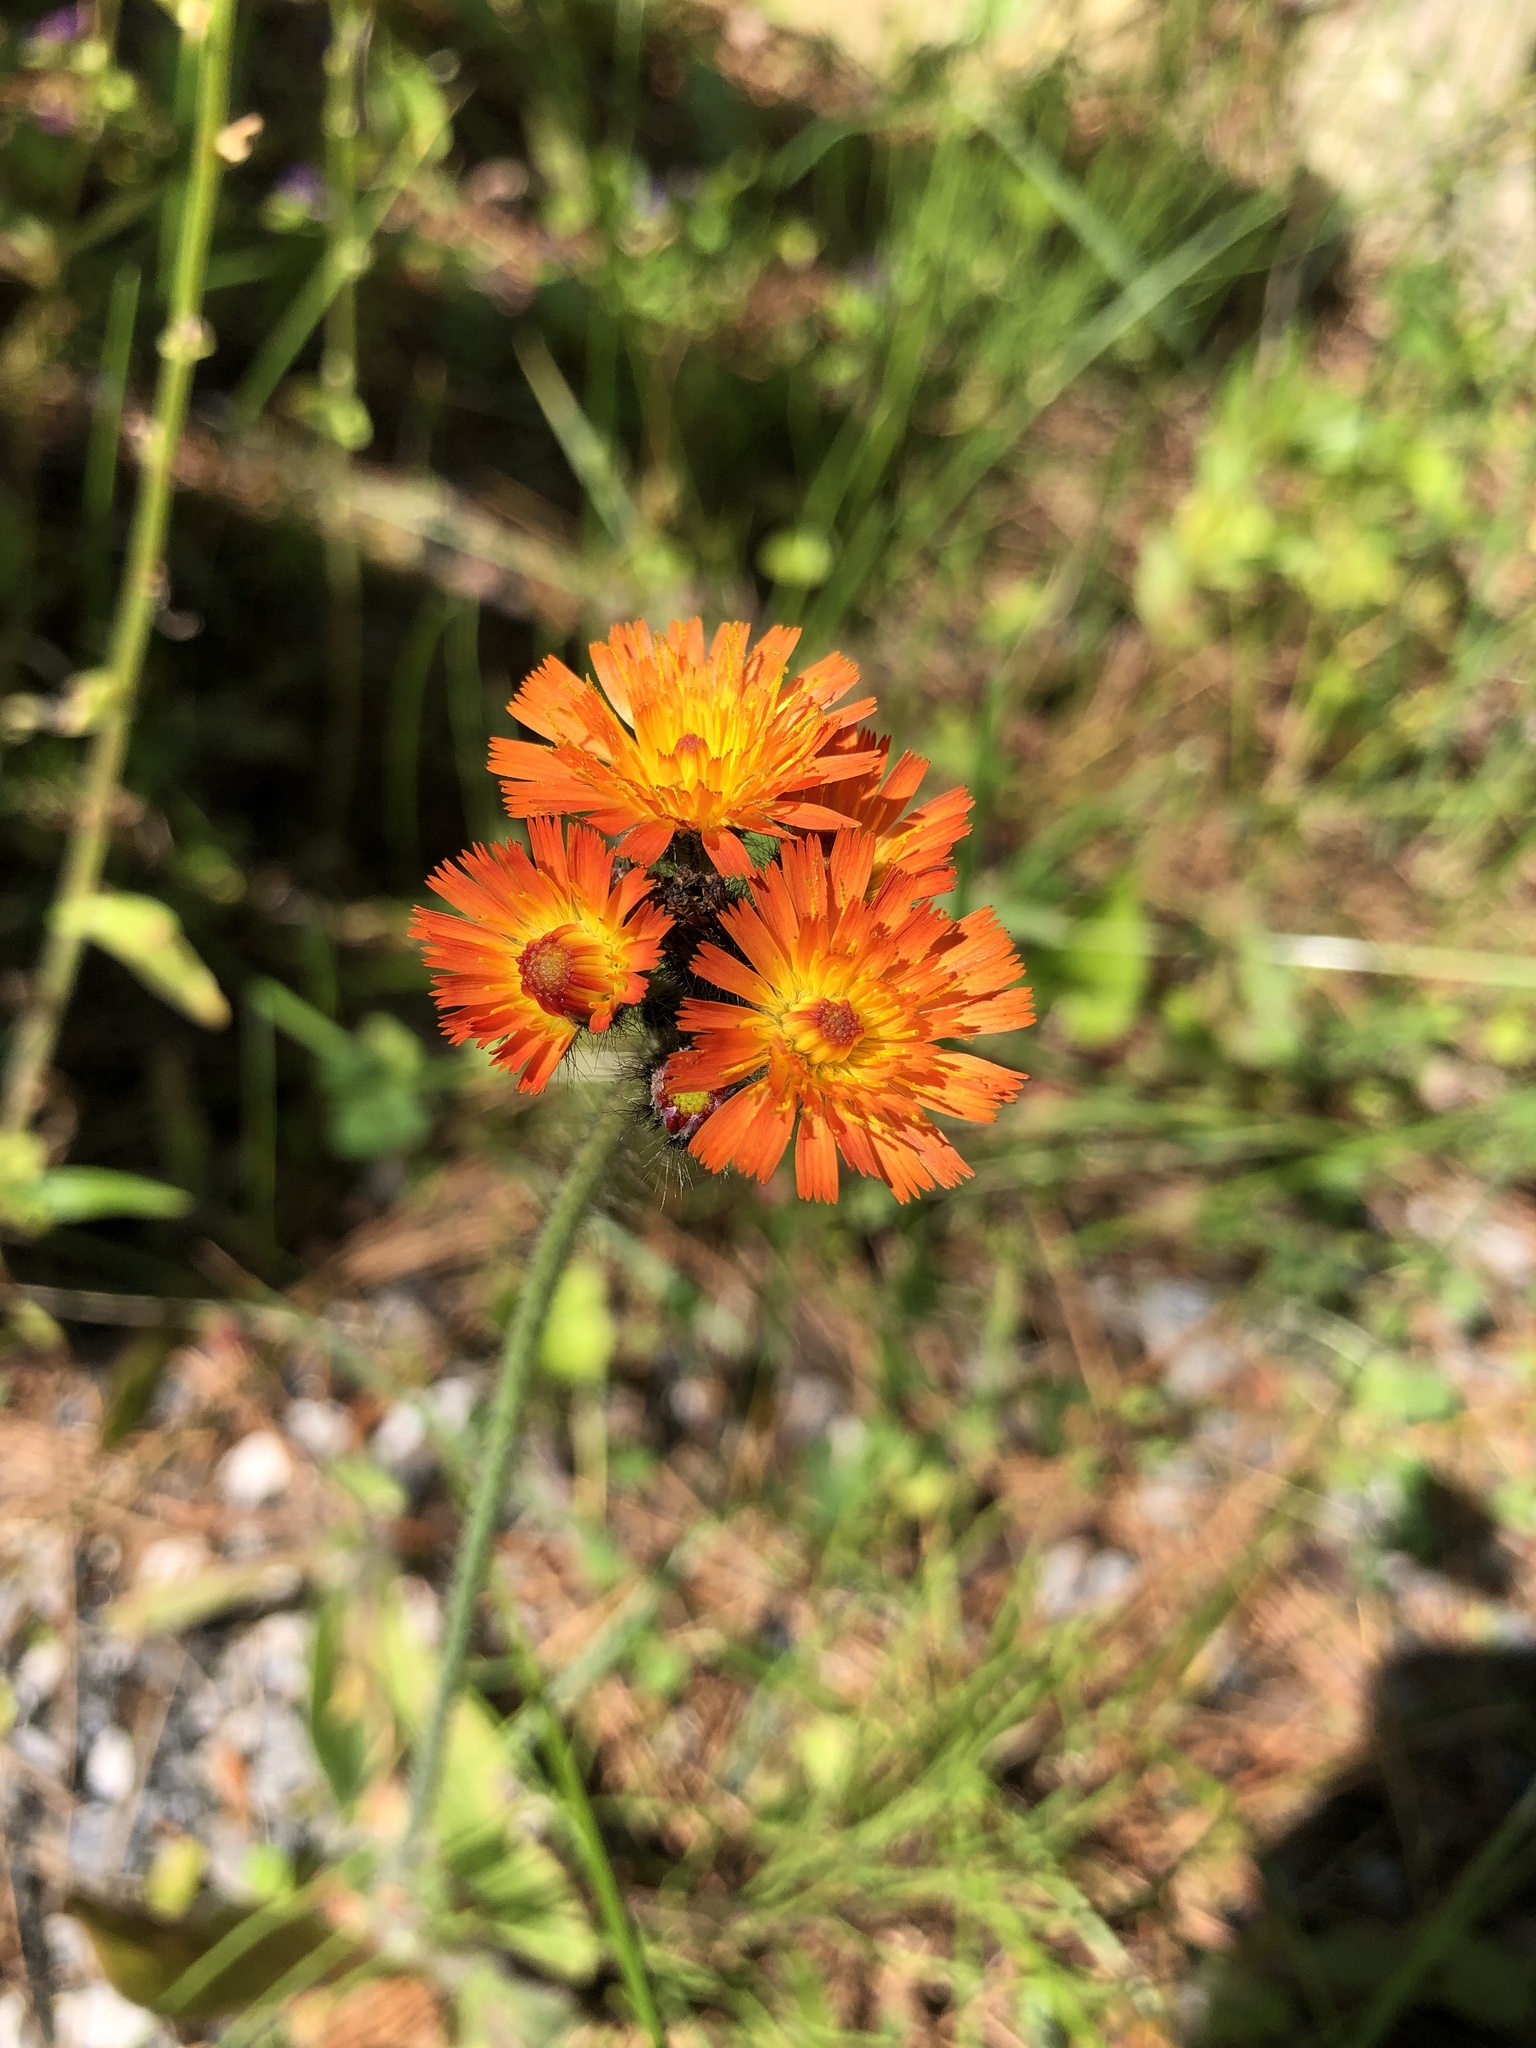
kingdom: Plantae
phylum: Tracheophyta
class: Magnoliopsida
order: Asterales
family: Asteraceae
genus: Pilosella
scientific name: Pilosella aurantiaca
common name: Fox-and-cubs
